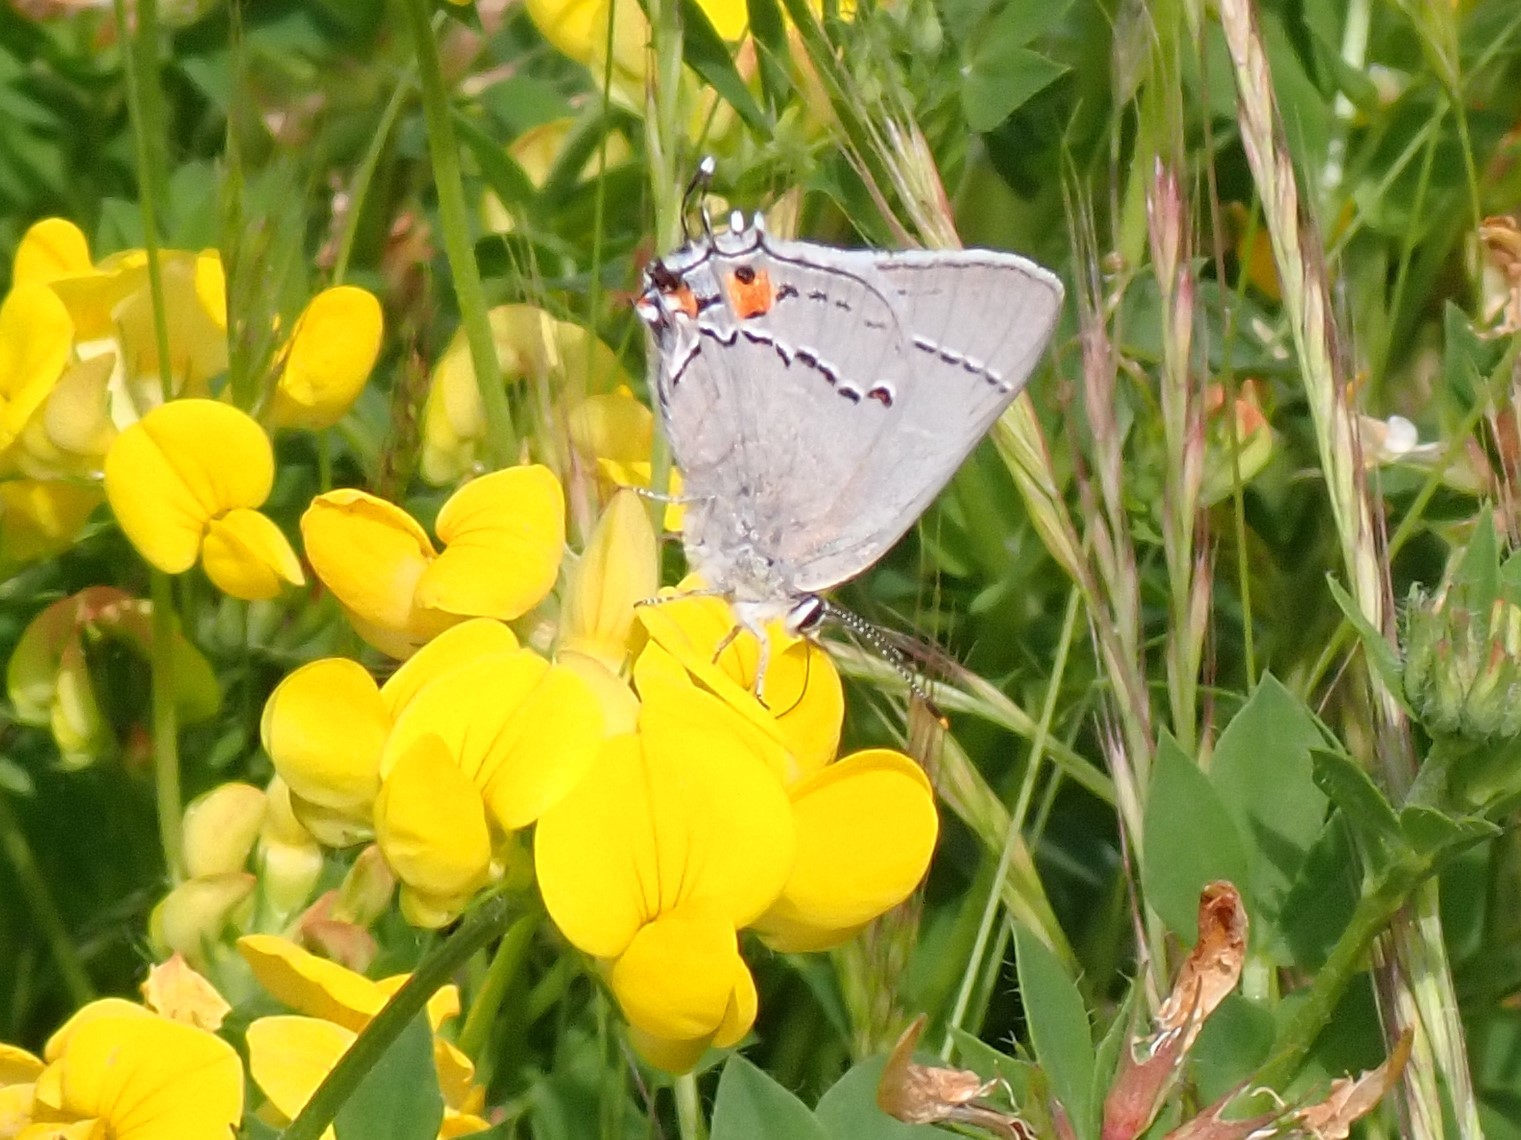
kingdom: Animalia
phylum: Arthropoda
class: Insecta
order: Lepidoptera
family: Lycaenidae
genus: Strymon
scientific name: Strymon melinus
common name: Gray hairstreak
